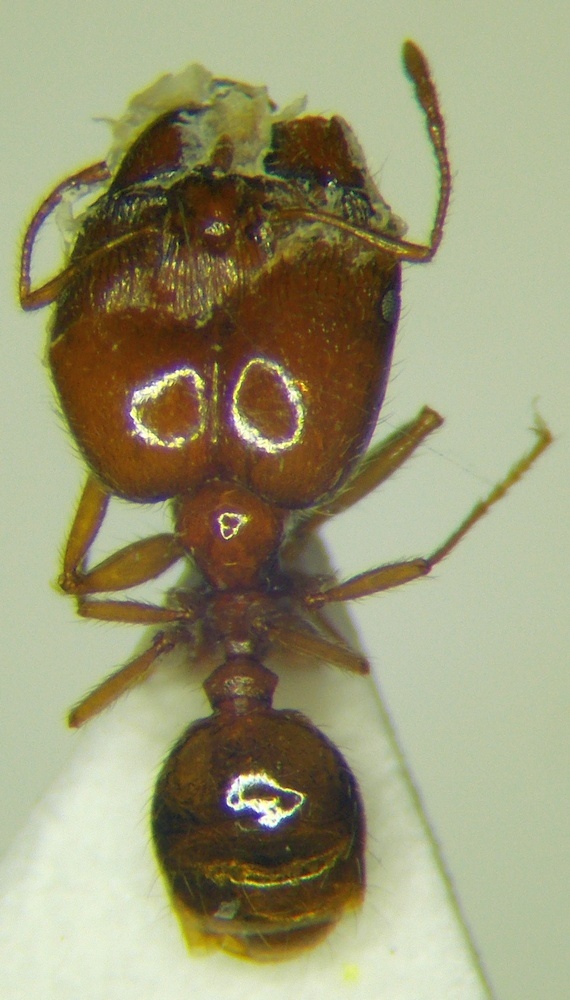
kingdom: Animalia
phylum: Arthropoda
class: Insecta
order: Hymenoptera
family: Formicidae
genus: Pheidole
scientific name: Pheidole pallidula
